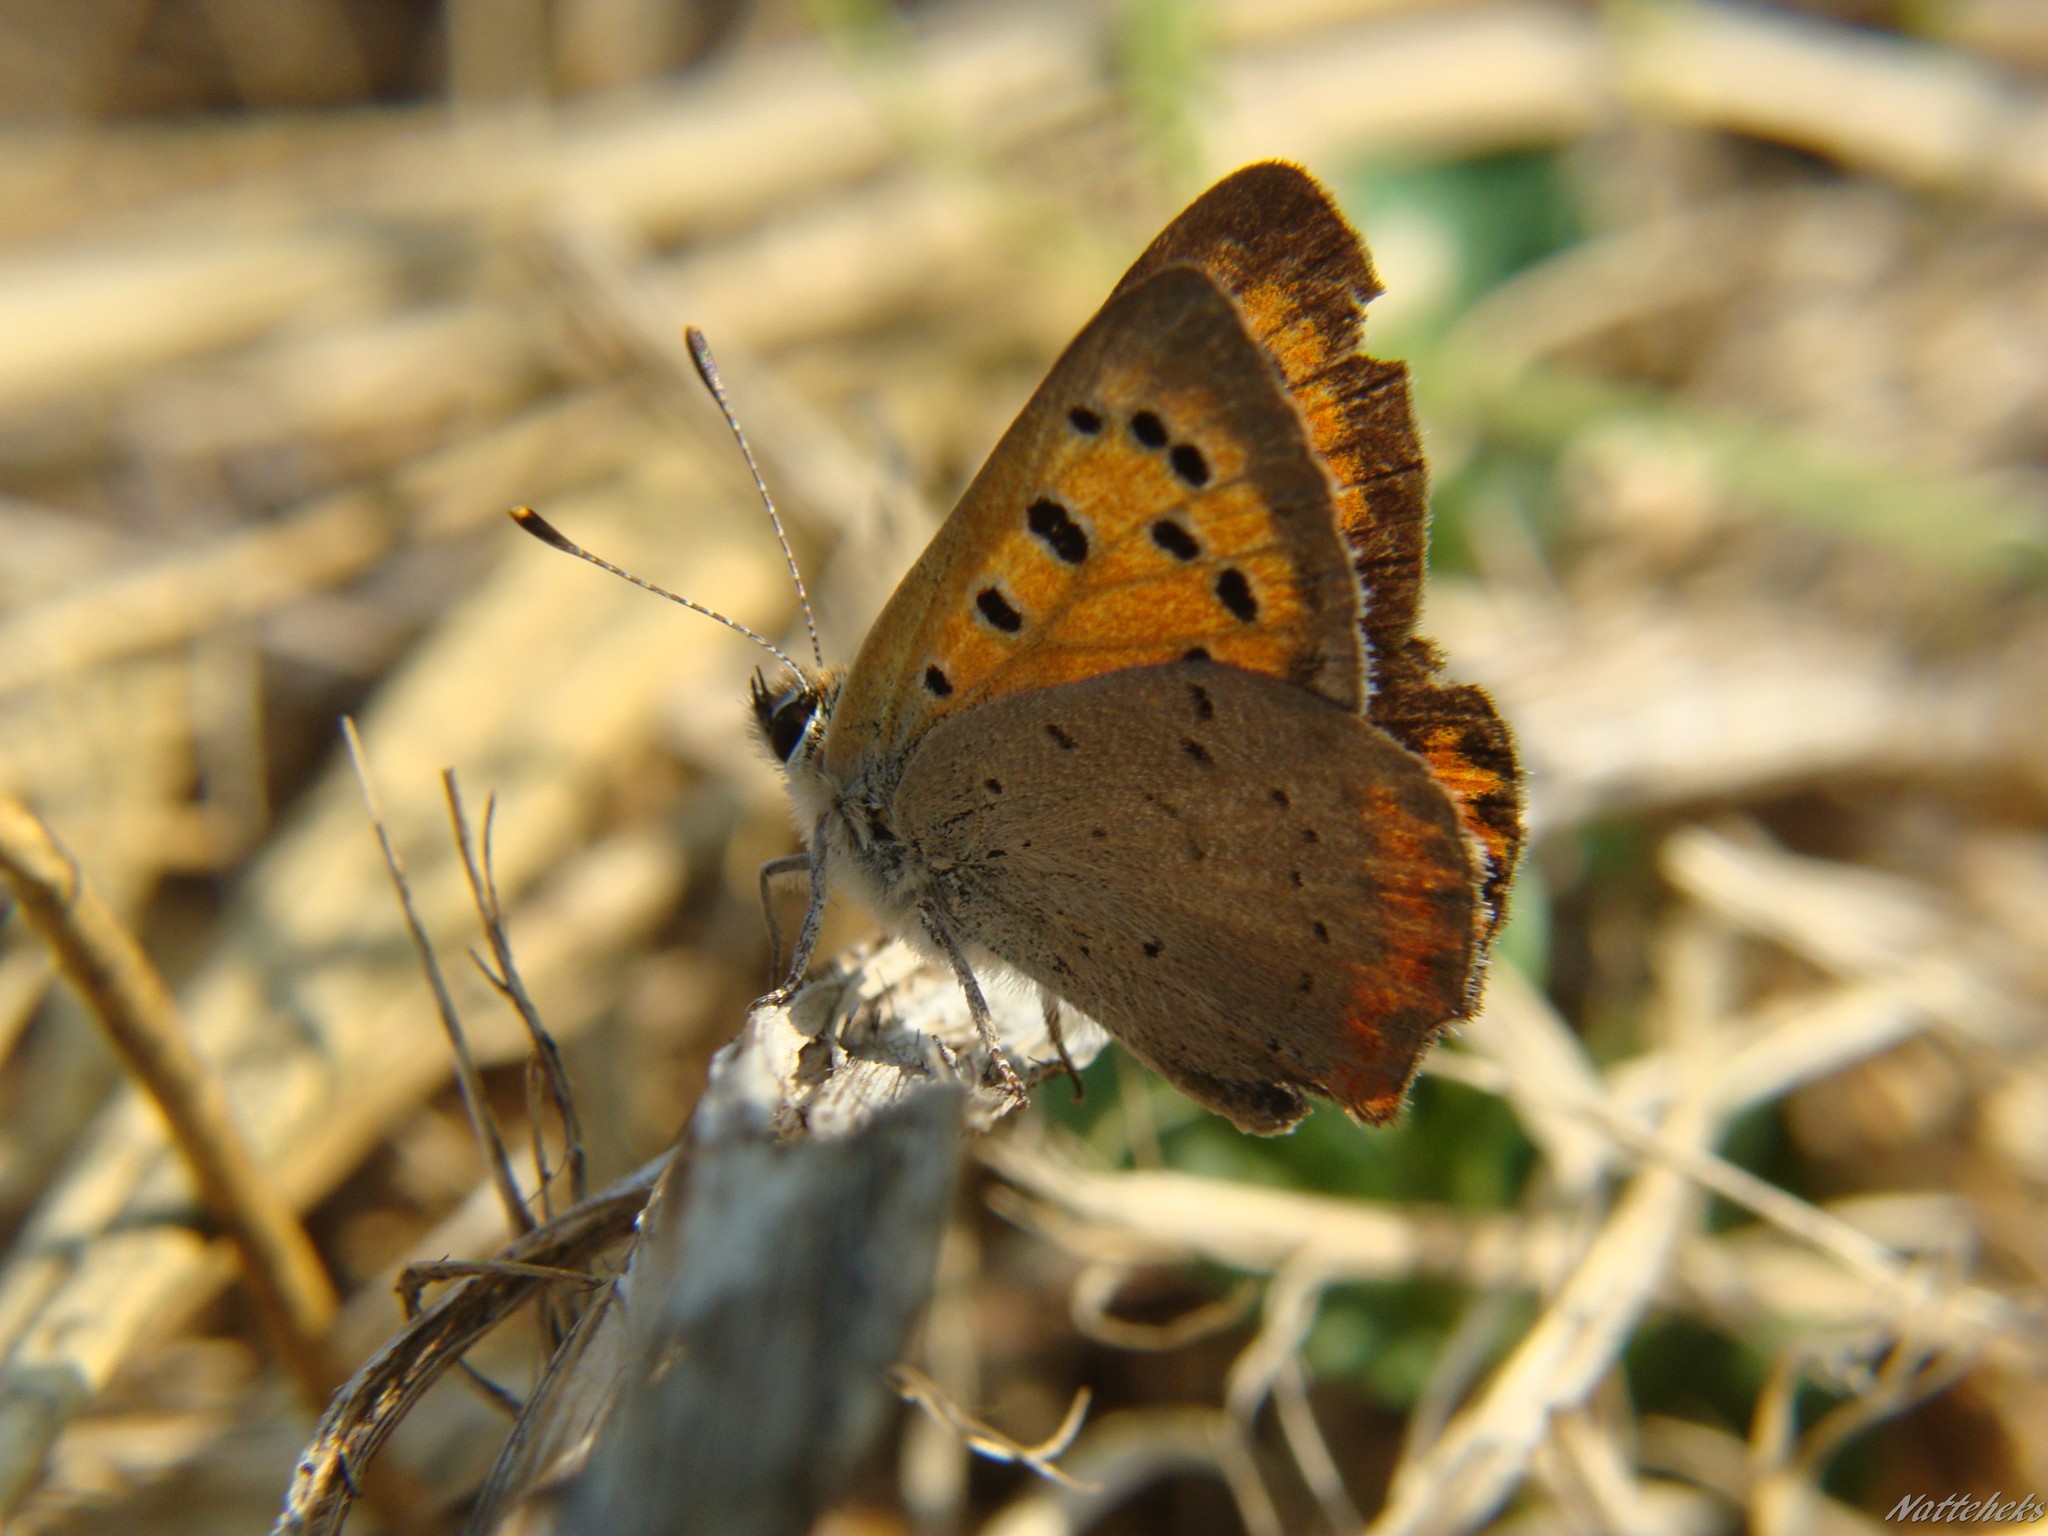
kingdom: Animalia
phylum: Arthropoda
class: Insecta
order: Lepidoptera
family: Lycaenidae
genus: Lycaena
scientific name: Lycaena phlaeas
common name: Small copper
